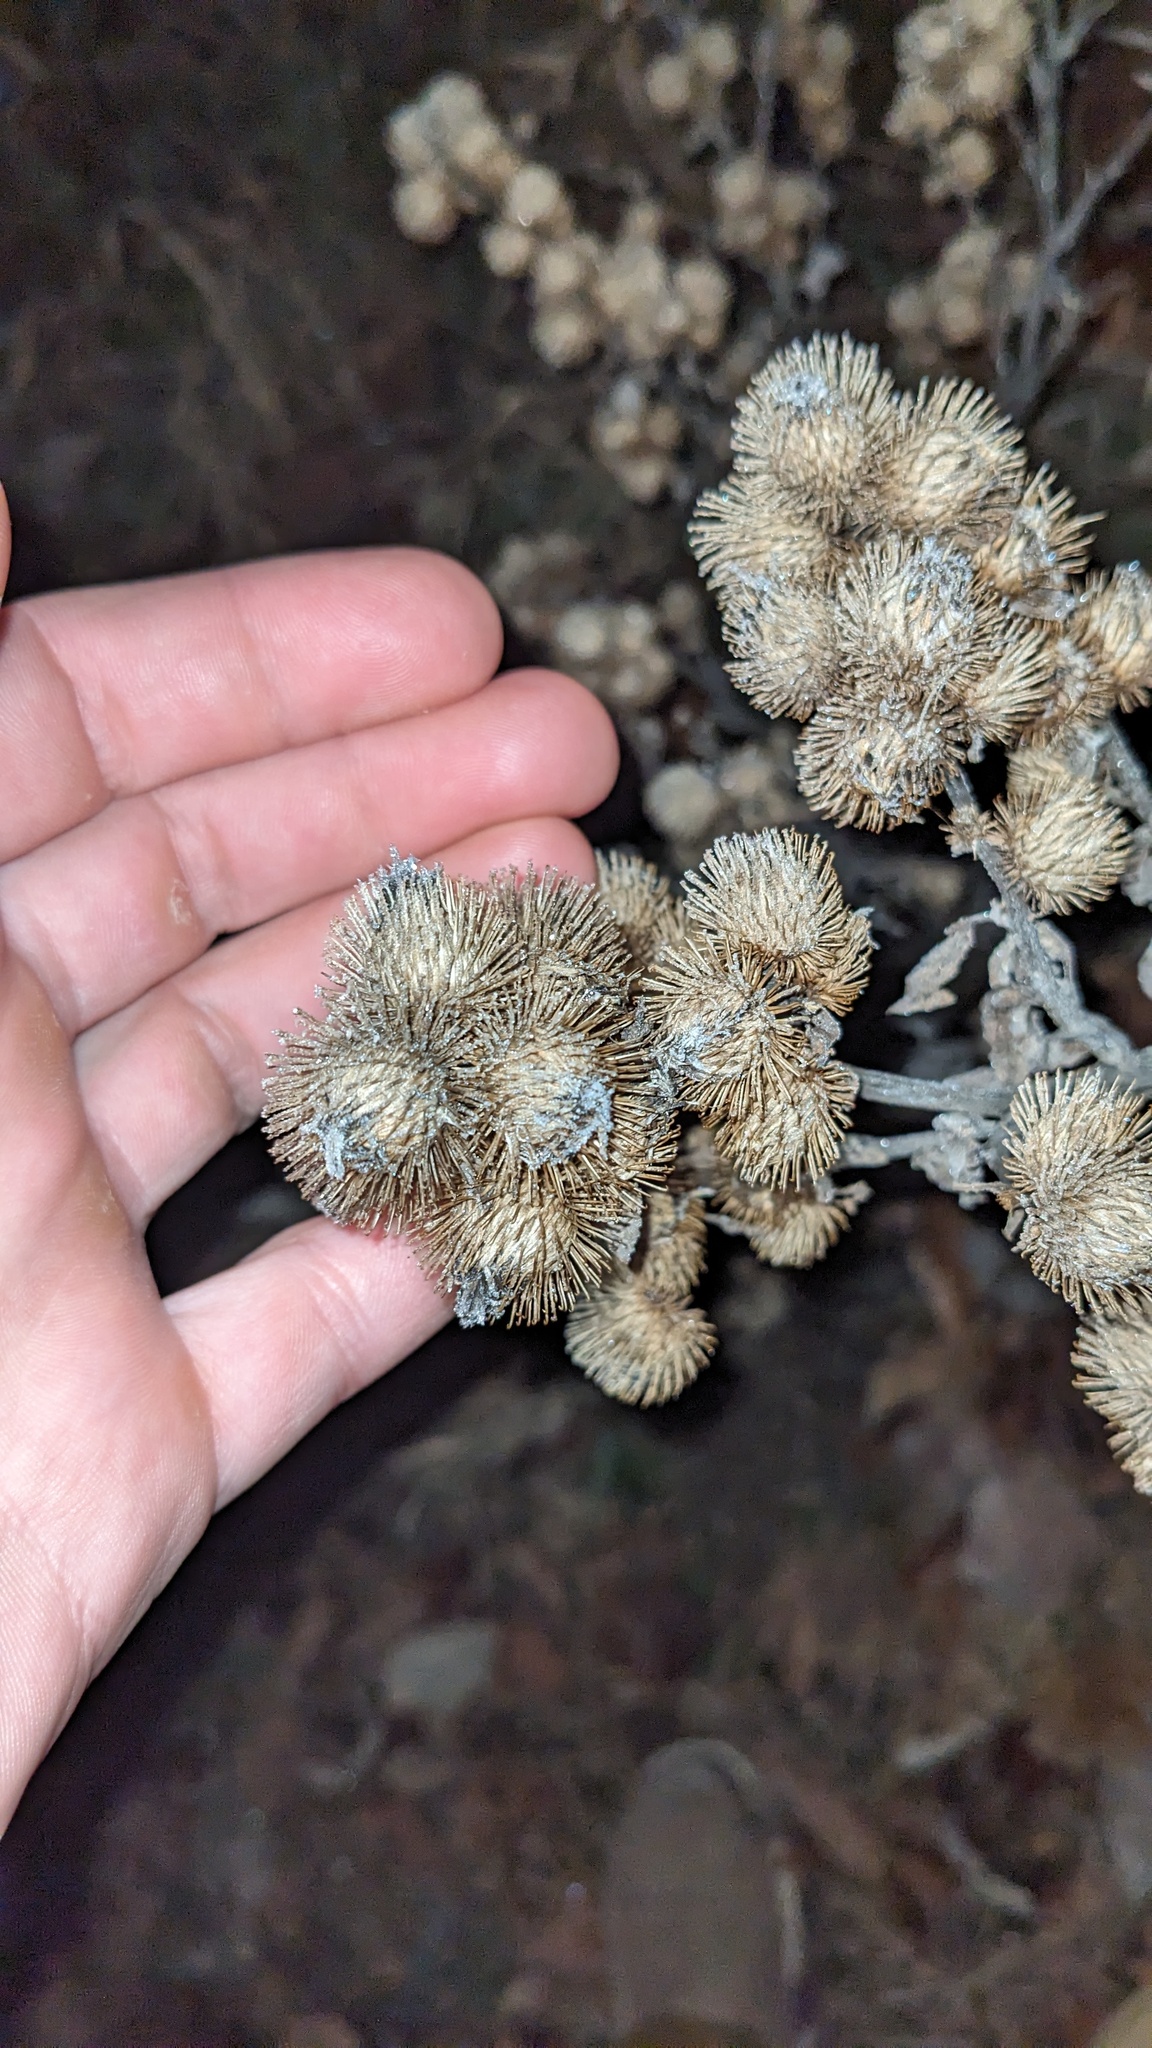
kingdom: Plantae
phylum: Tracheophyta
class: Magnoliopsida
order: Asterales
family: Asteraceae
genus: Arctium
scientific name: Arctium minus
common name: Lesser burdock
